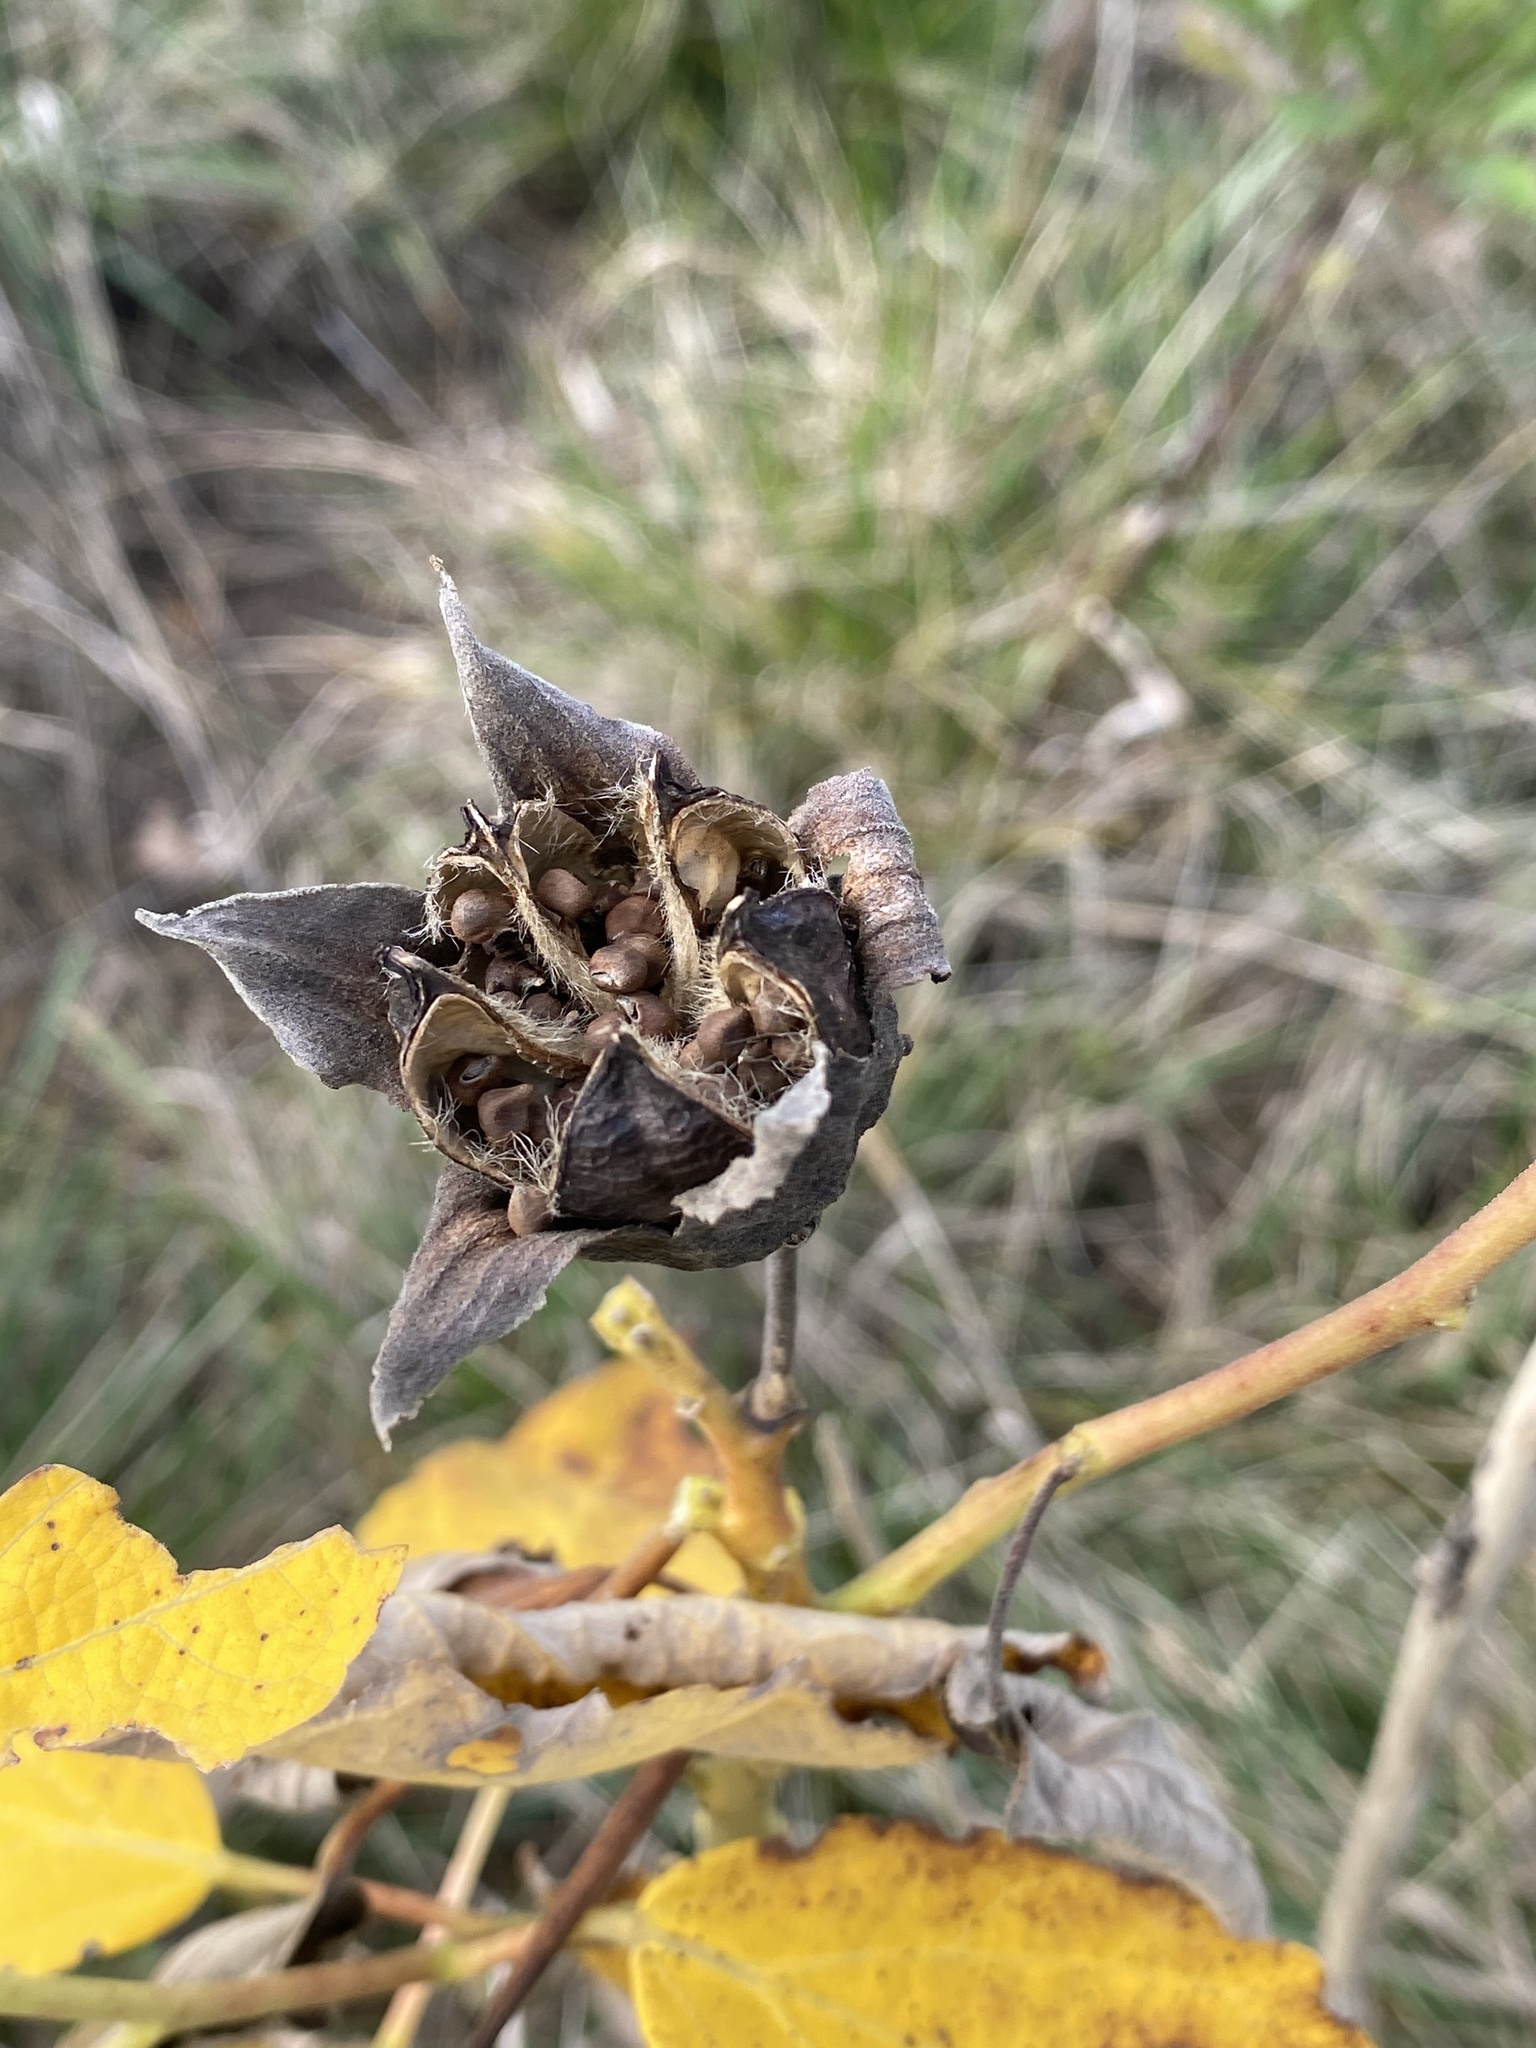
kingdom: Plantae
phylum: Tracheophyta
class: Magnoliopsida
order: Malvales
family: Malvaceae
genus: Hibiscus
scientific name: Hibiscus moscheutos
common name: Common rose-mallow
